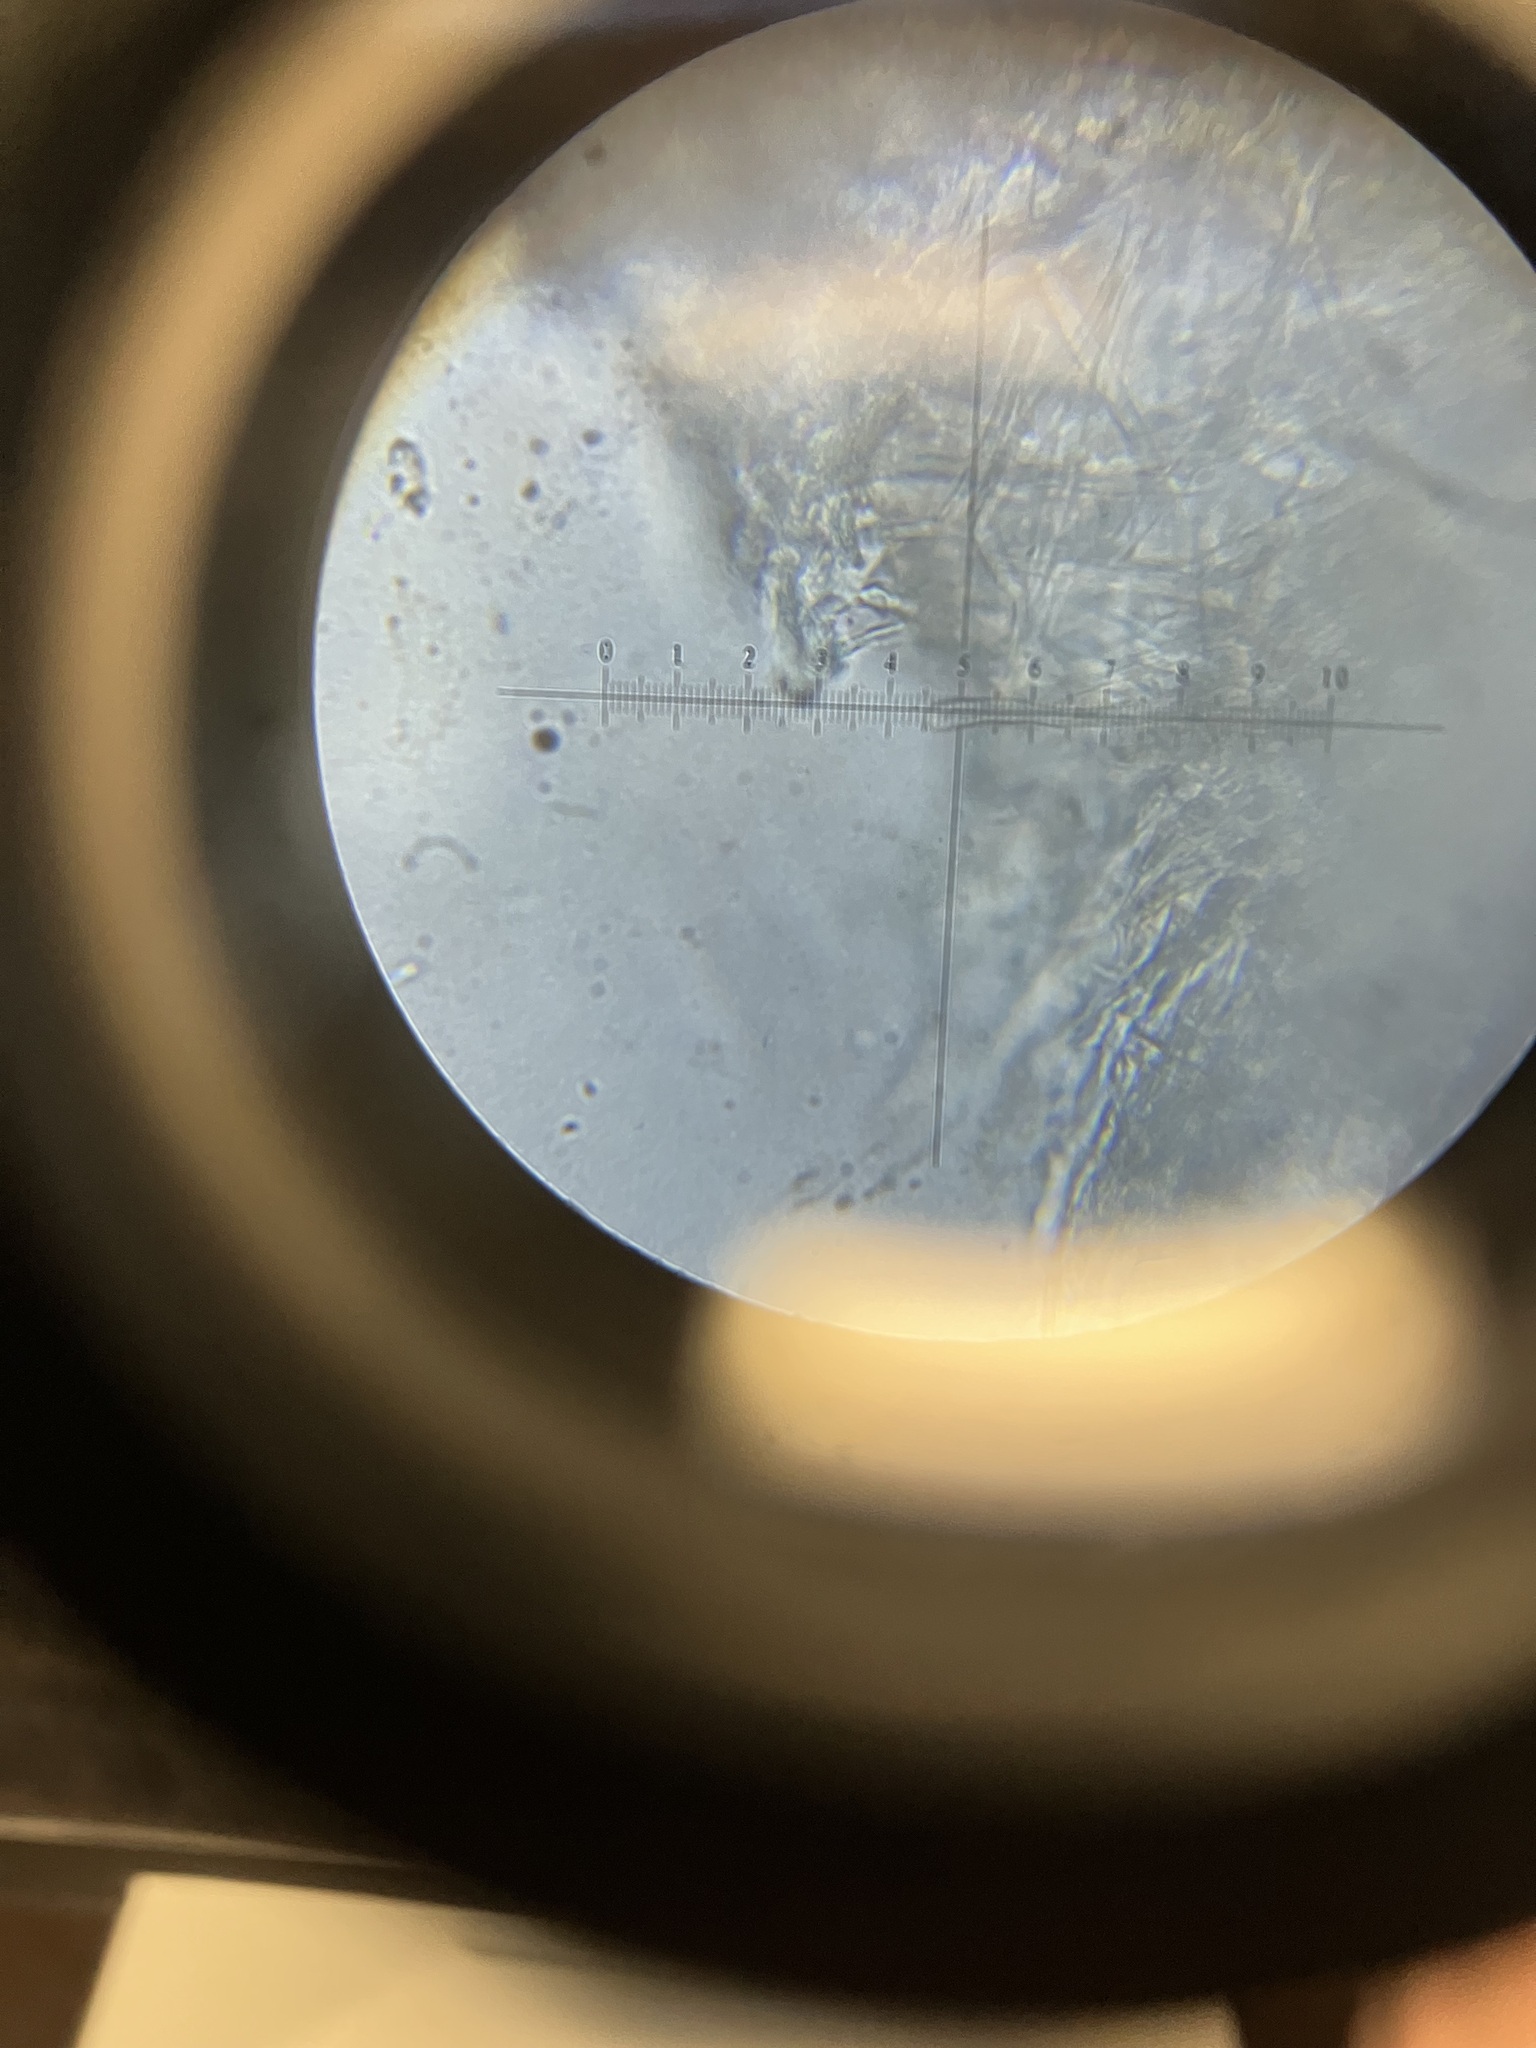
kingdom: Fungi
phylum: Basidiomycota
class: Agaricomycetes
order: Polyporales
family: Polyporaceae
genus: Trametes
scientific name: Trametes versicolor
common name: Turkeytail
